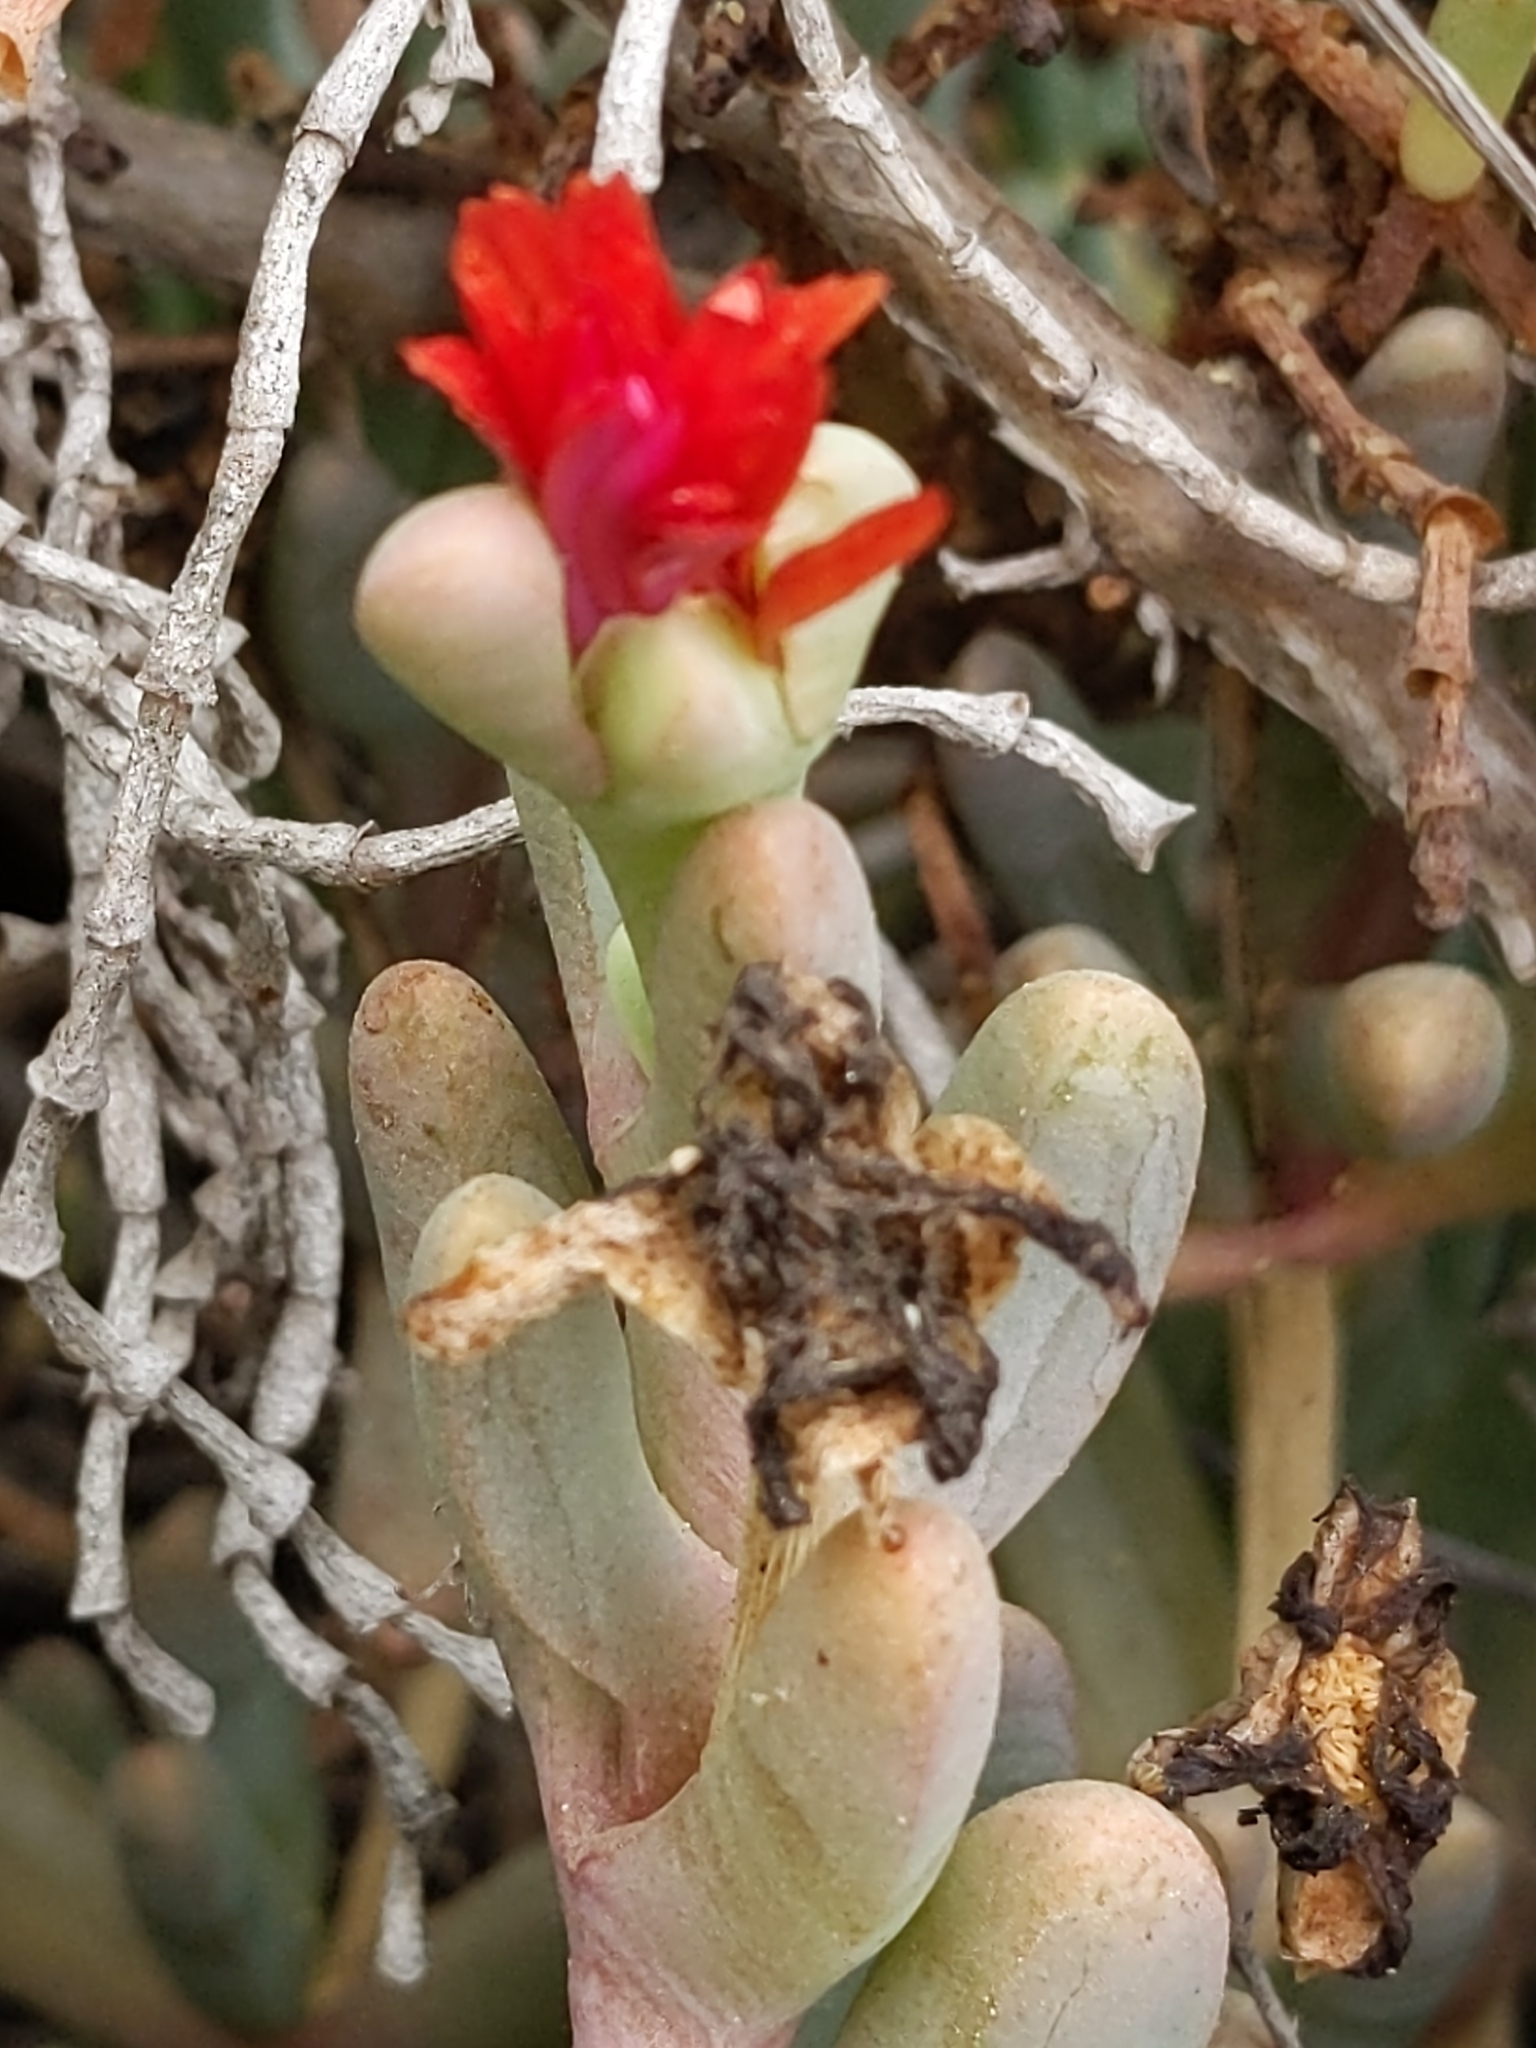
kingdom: Plantae
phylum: Tracheophyta
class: Magnoliopsida
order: Caryophyllales
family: Aizoaceae
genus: Malephora
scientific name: Malephora crocea
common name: Coppery mesemb
